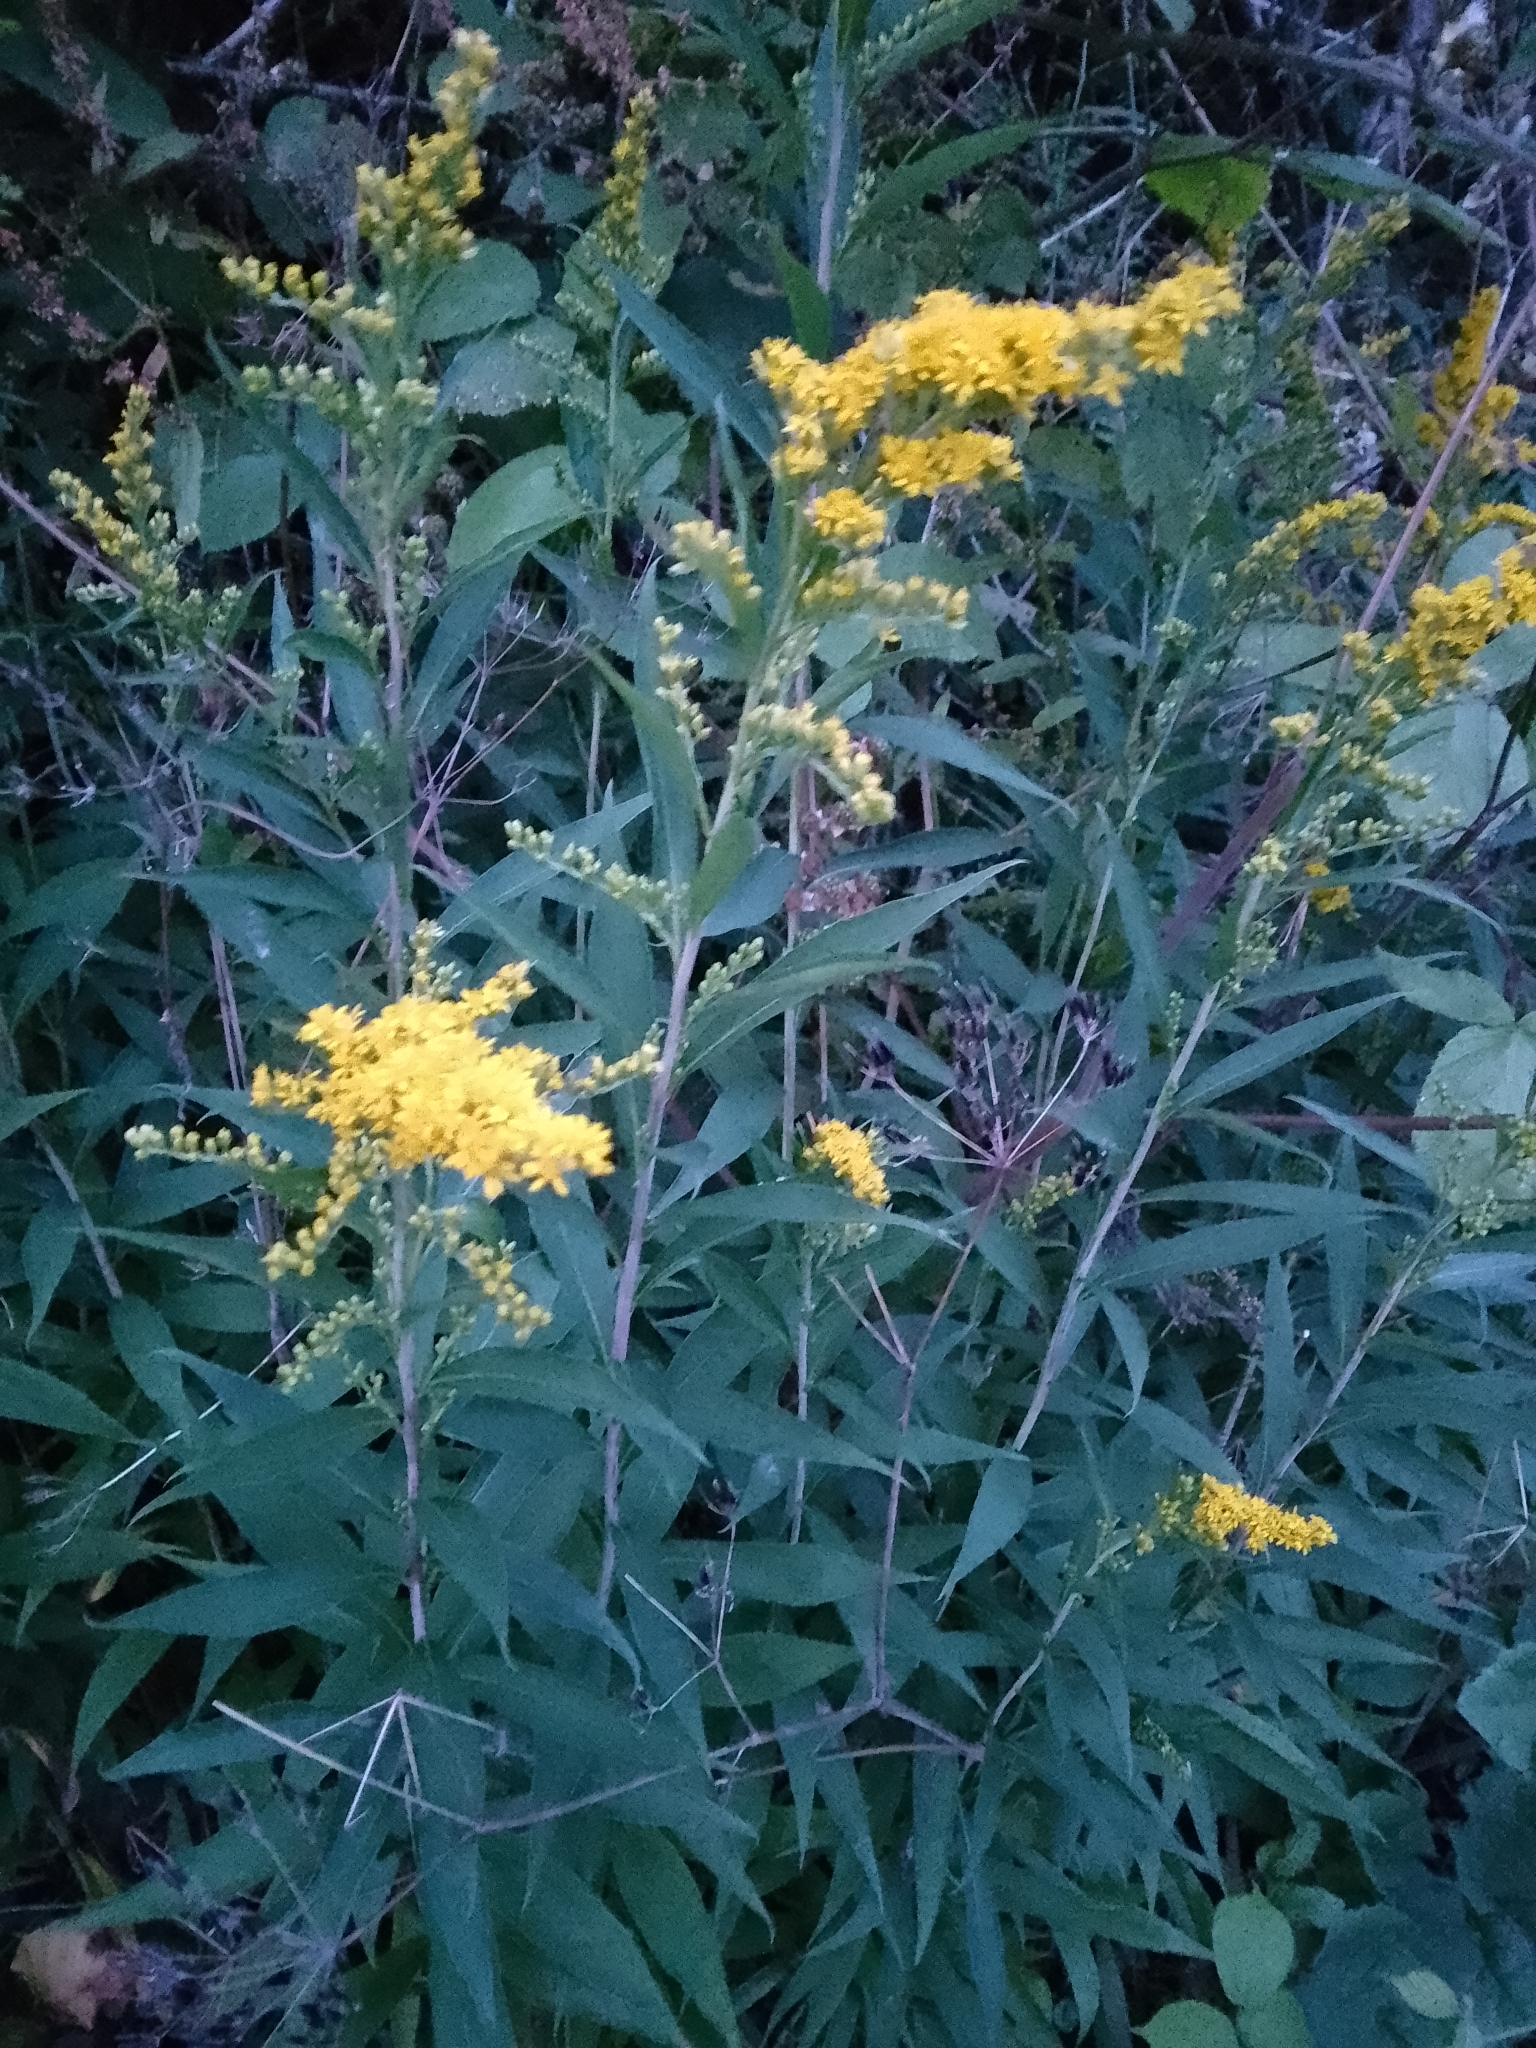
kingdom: Plantae
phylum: Tracheophyta
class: Magnoliopsida
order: Asterales
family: Asteraceae
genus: Solidago
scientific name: Solidago gigantea
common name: Giant goldenrod
